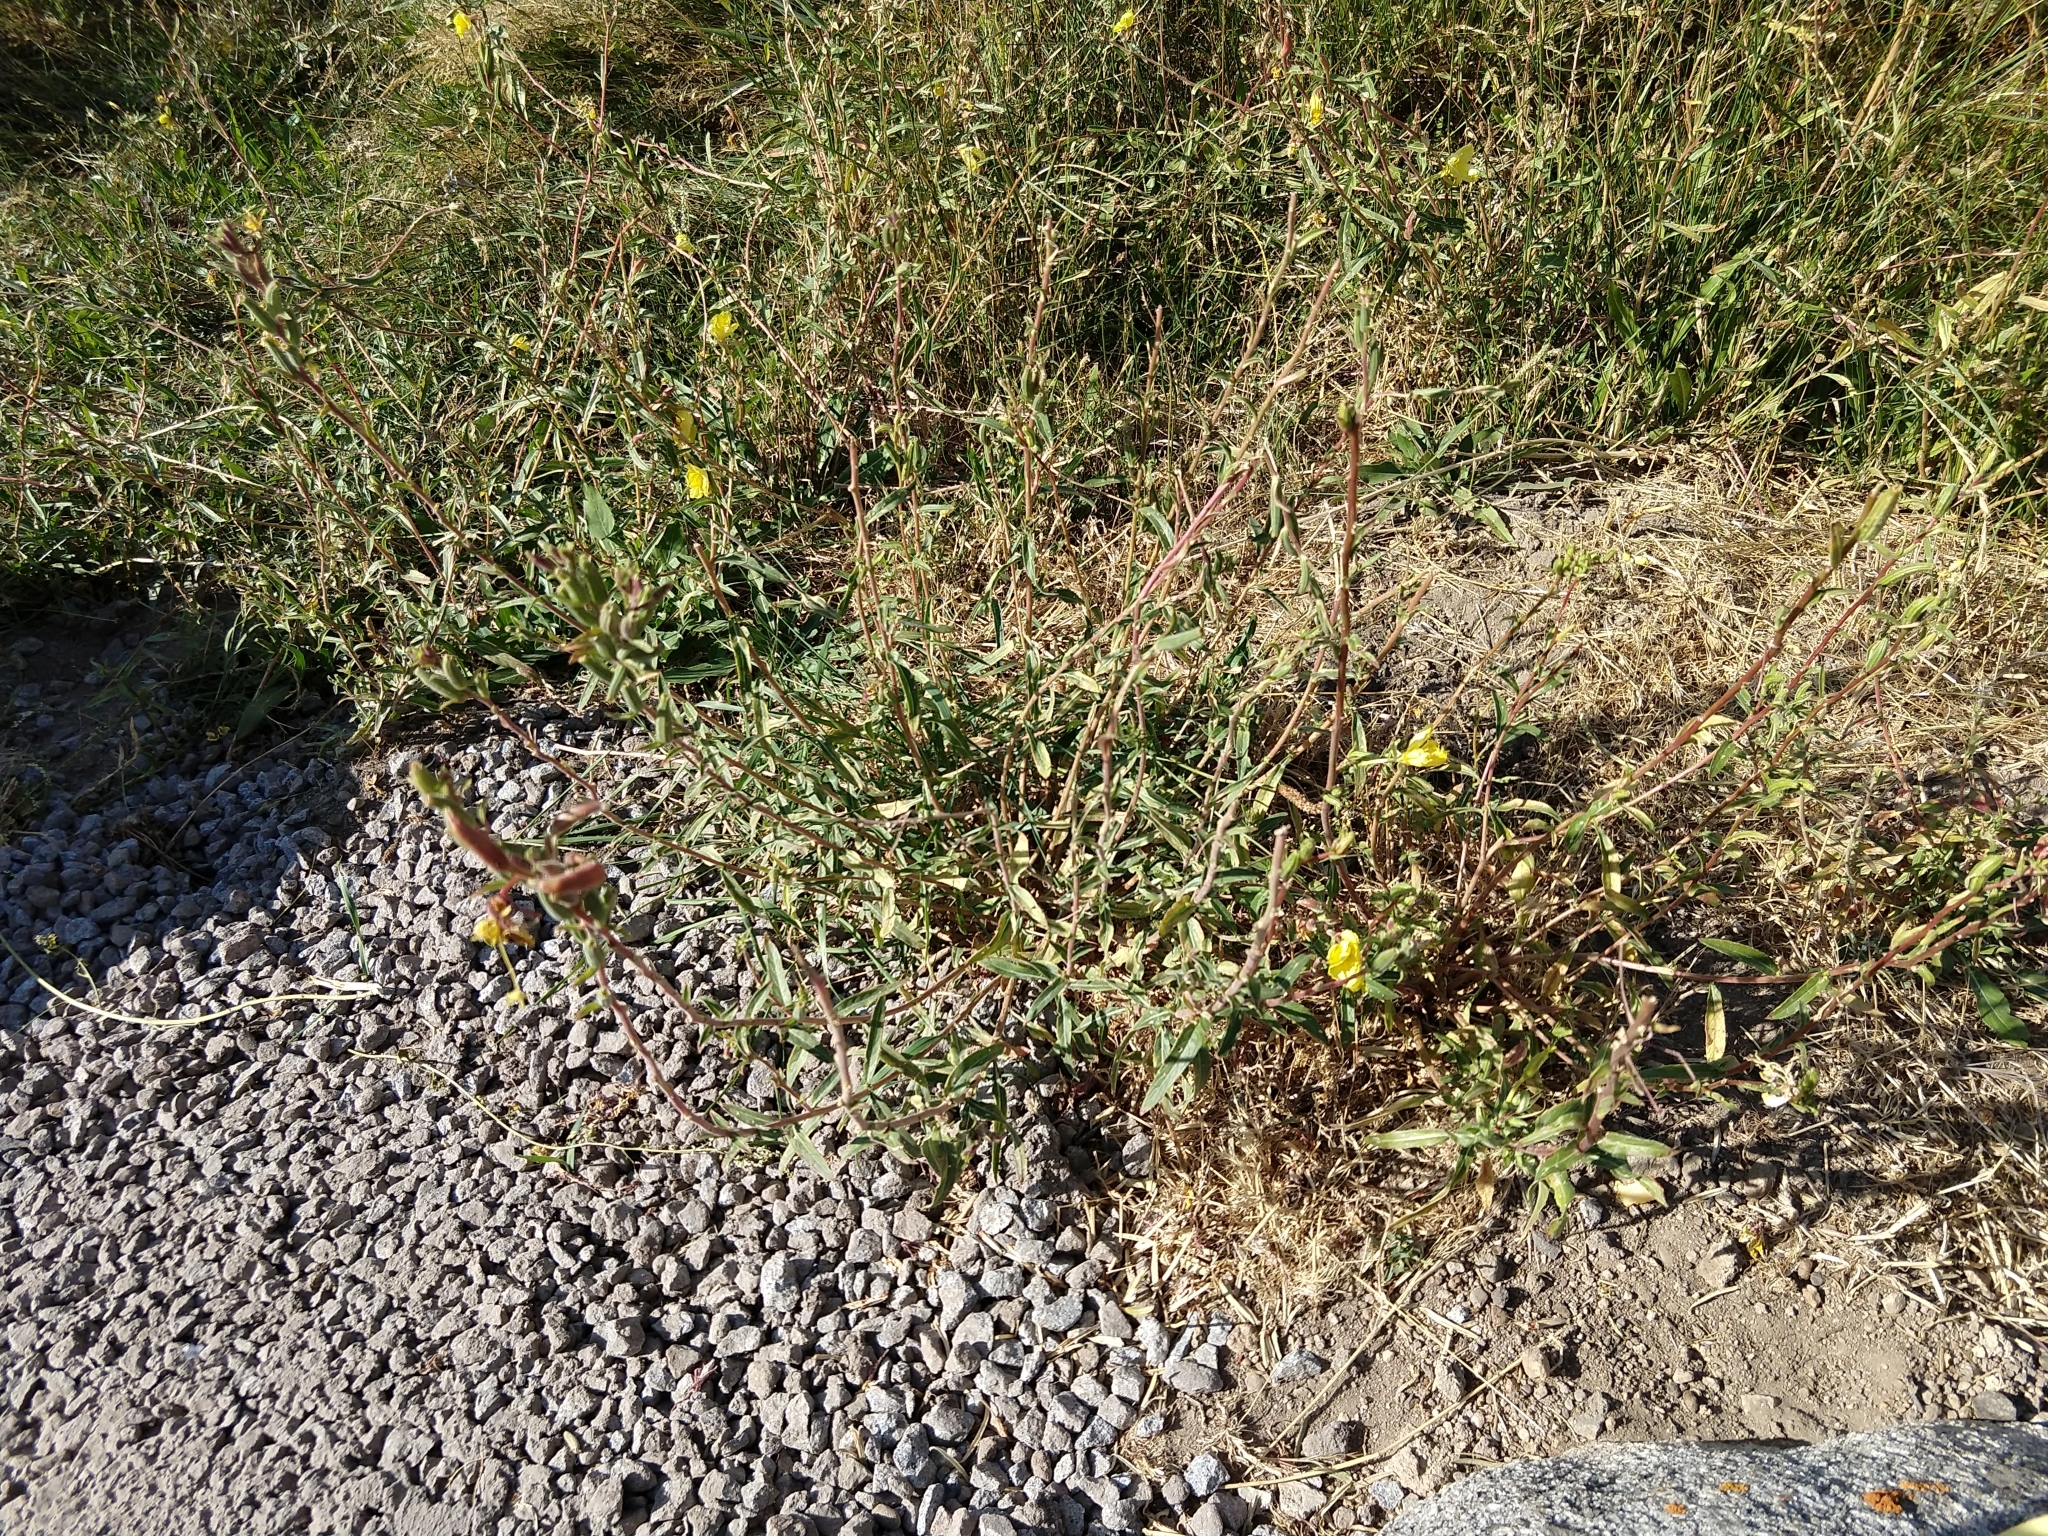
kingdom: Plantae
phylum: Tracheophyta
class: Magnoliopsida
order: Myrtales
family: Onagraceae
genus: Oenothera
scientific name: Oenothera elata
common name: Hooker's evening-primrose
